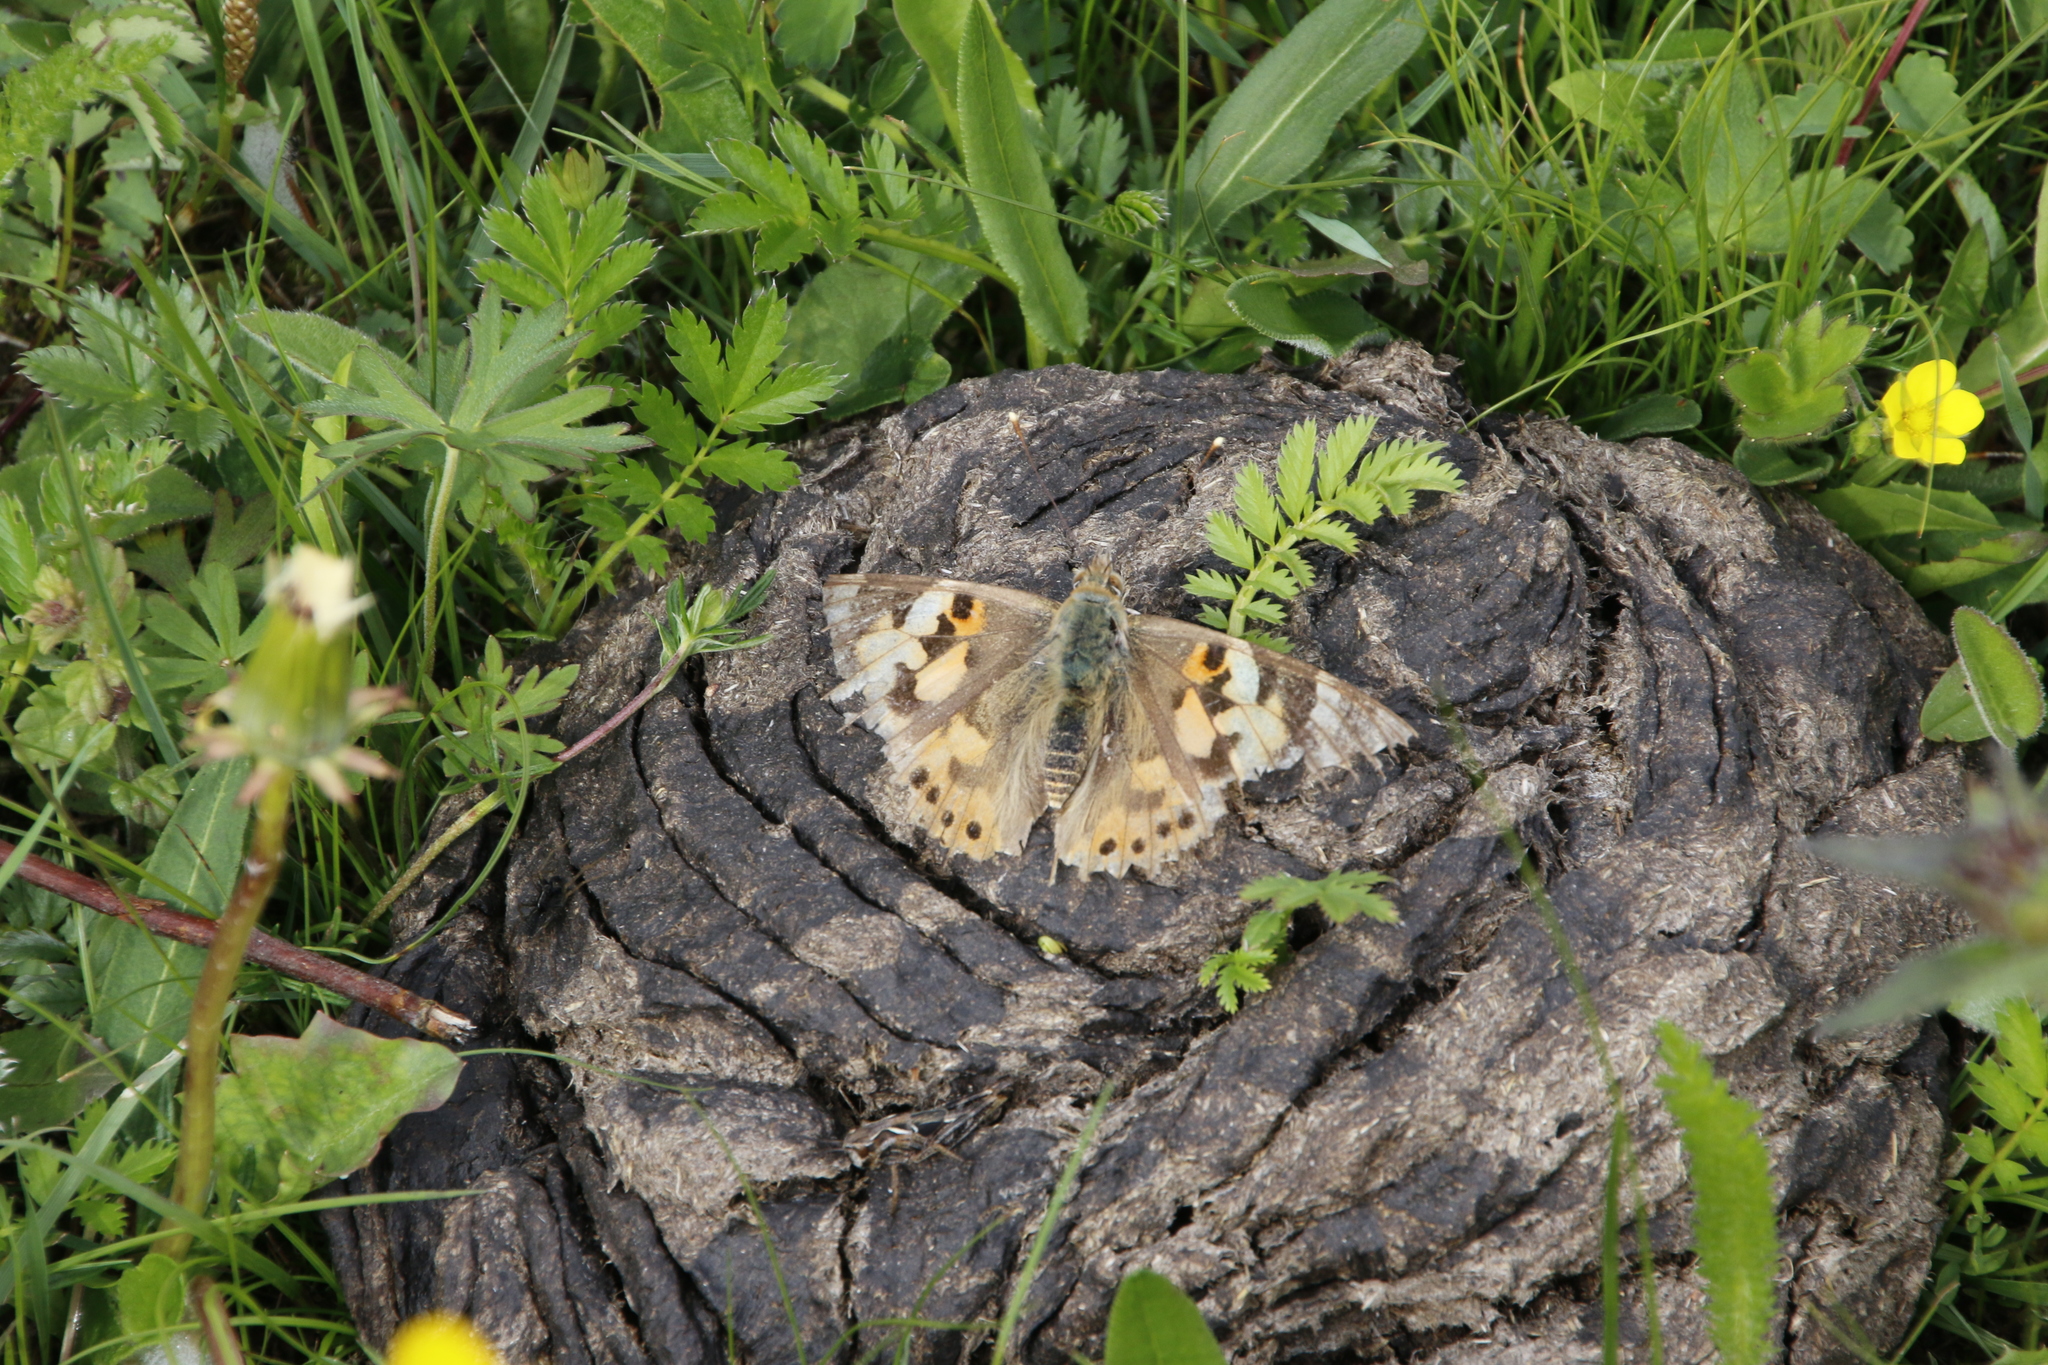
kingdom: Animalia
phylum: Arthropoda
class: Insecta
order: Lepidoptera
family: Nymphalidae
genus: Vanessa
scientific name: Vanessa cardui
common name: Painted lady
